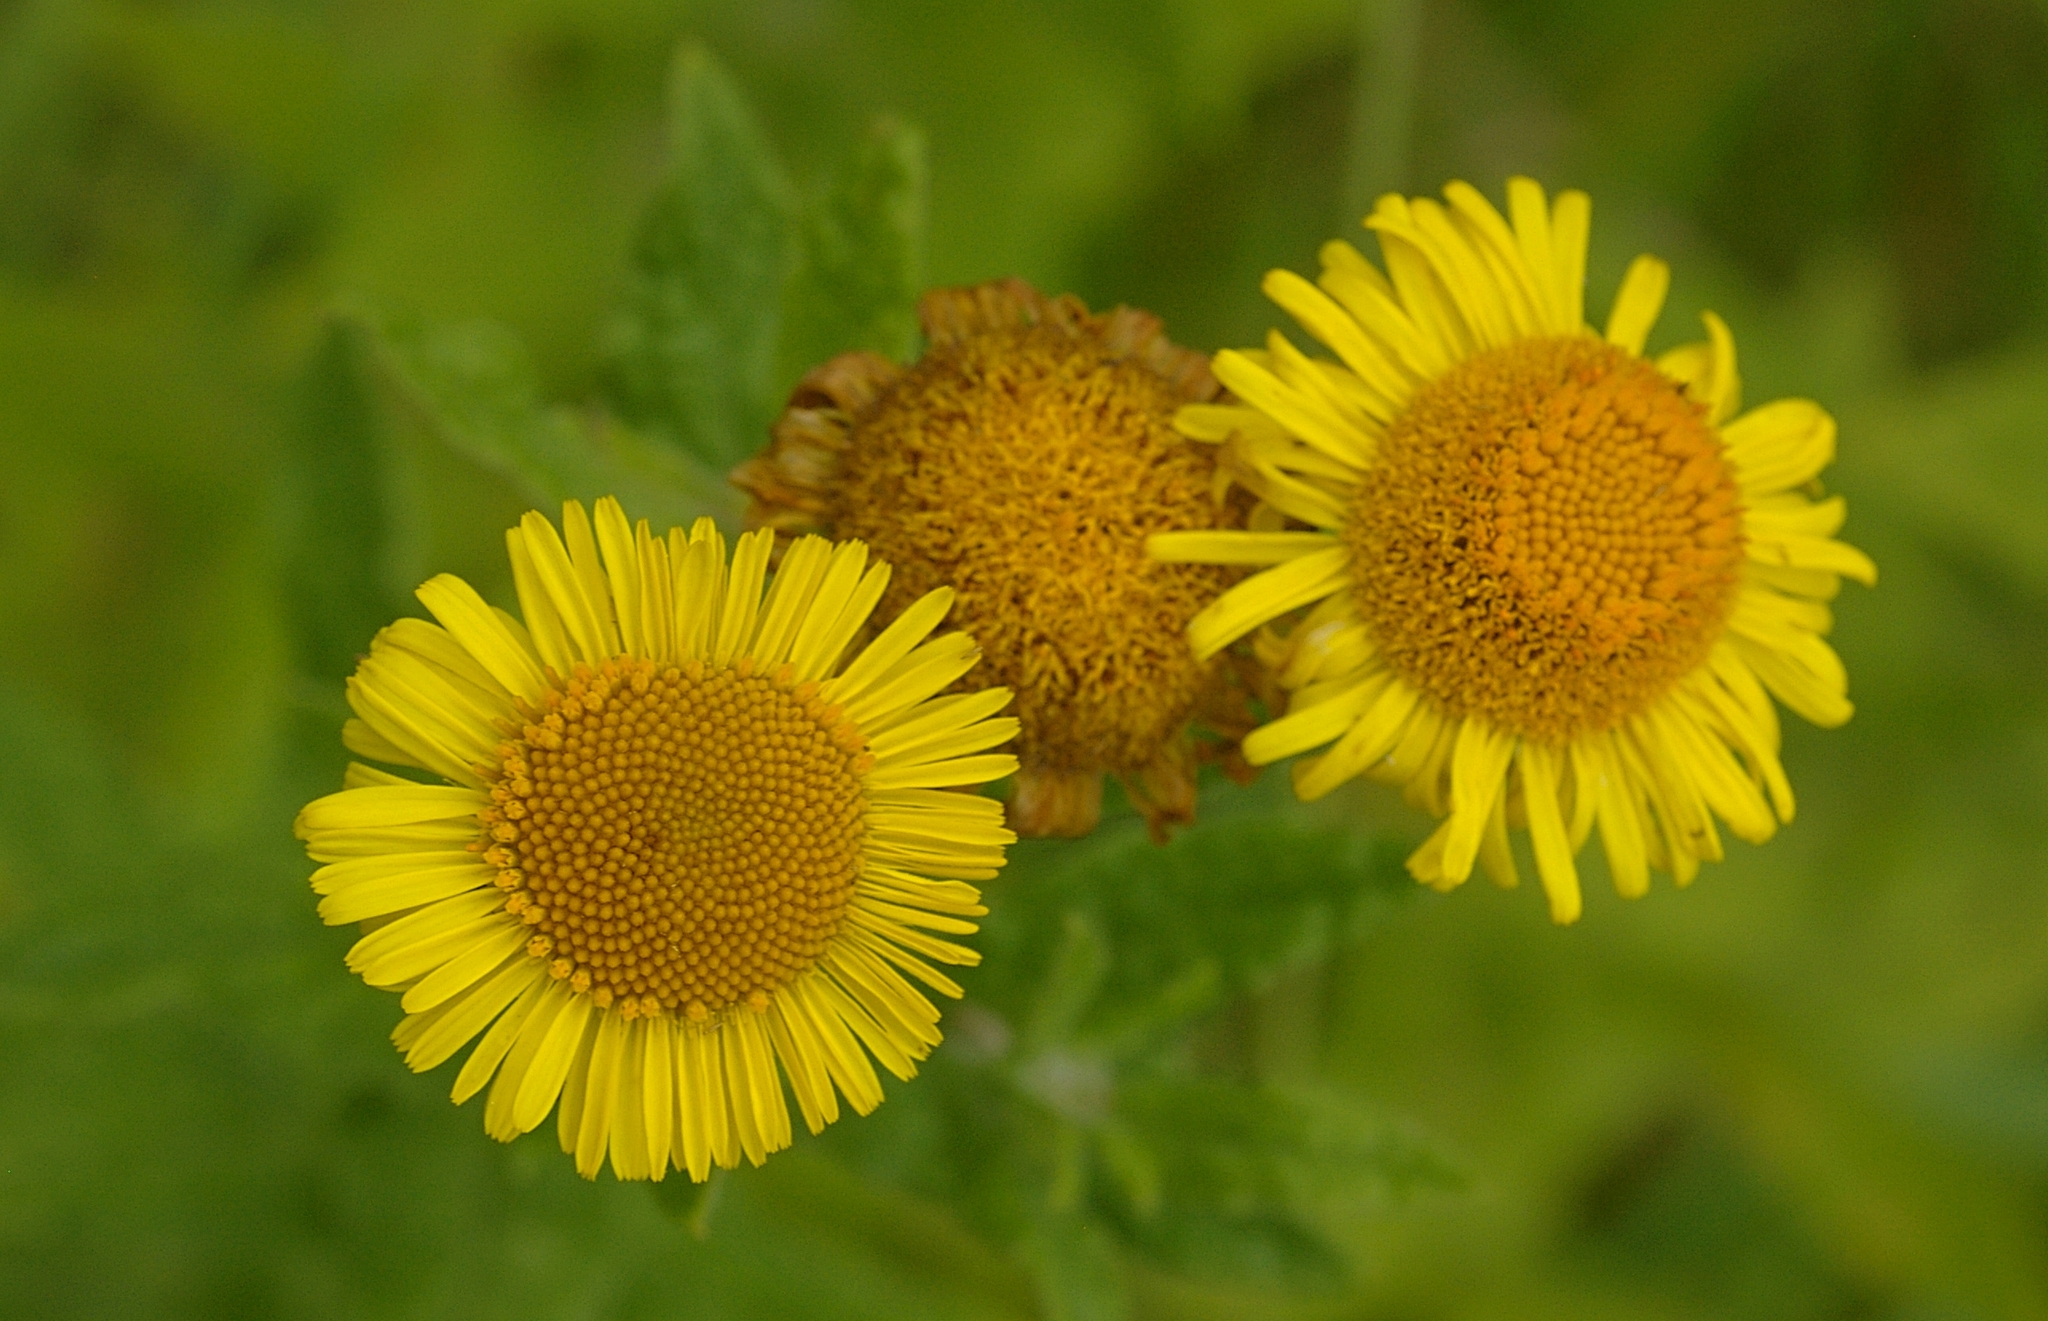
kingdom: Plantae
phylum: Tracheophyta
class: Magnoliopsida
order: Asterales
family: Asteraceae
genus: Pulicaria
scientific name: Pulicaria dysenterica
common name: Common fleabane
